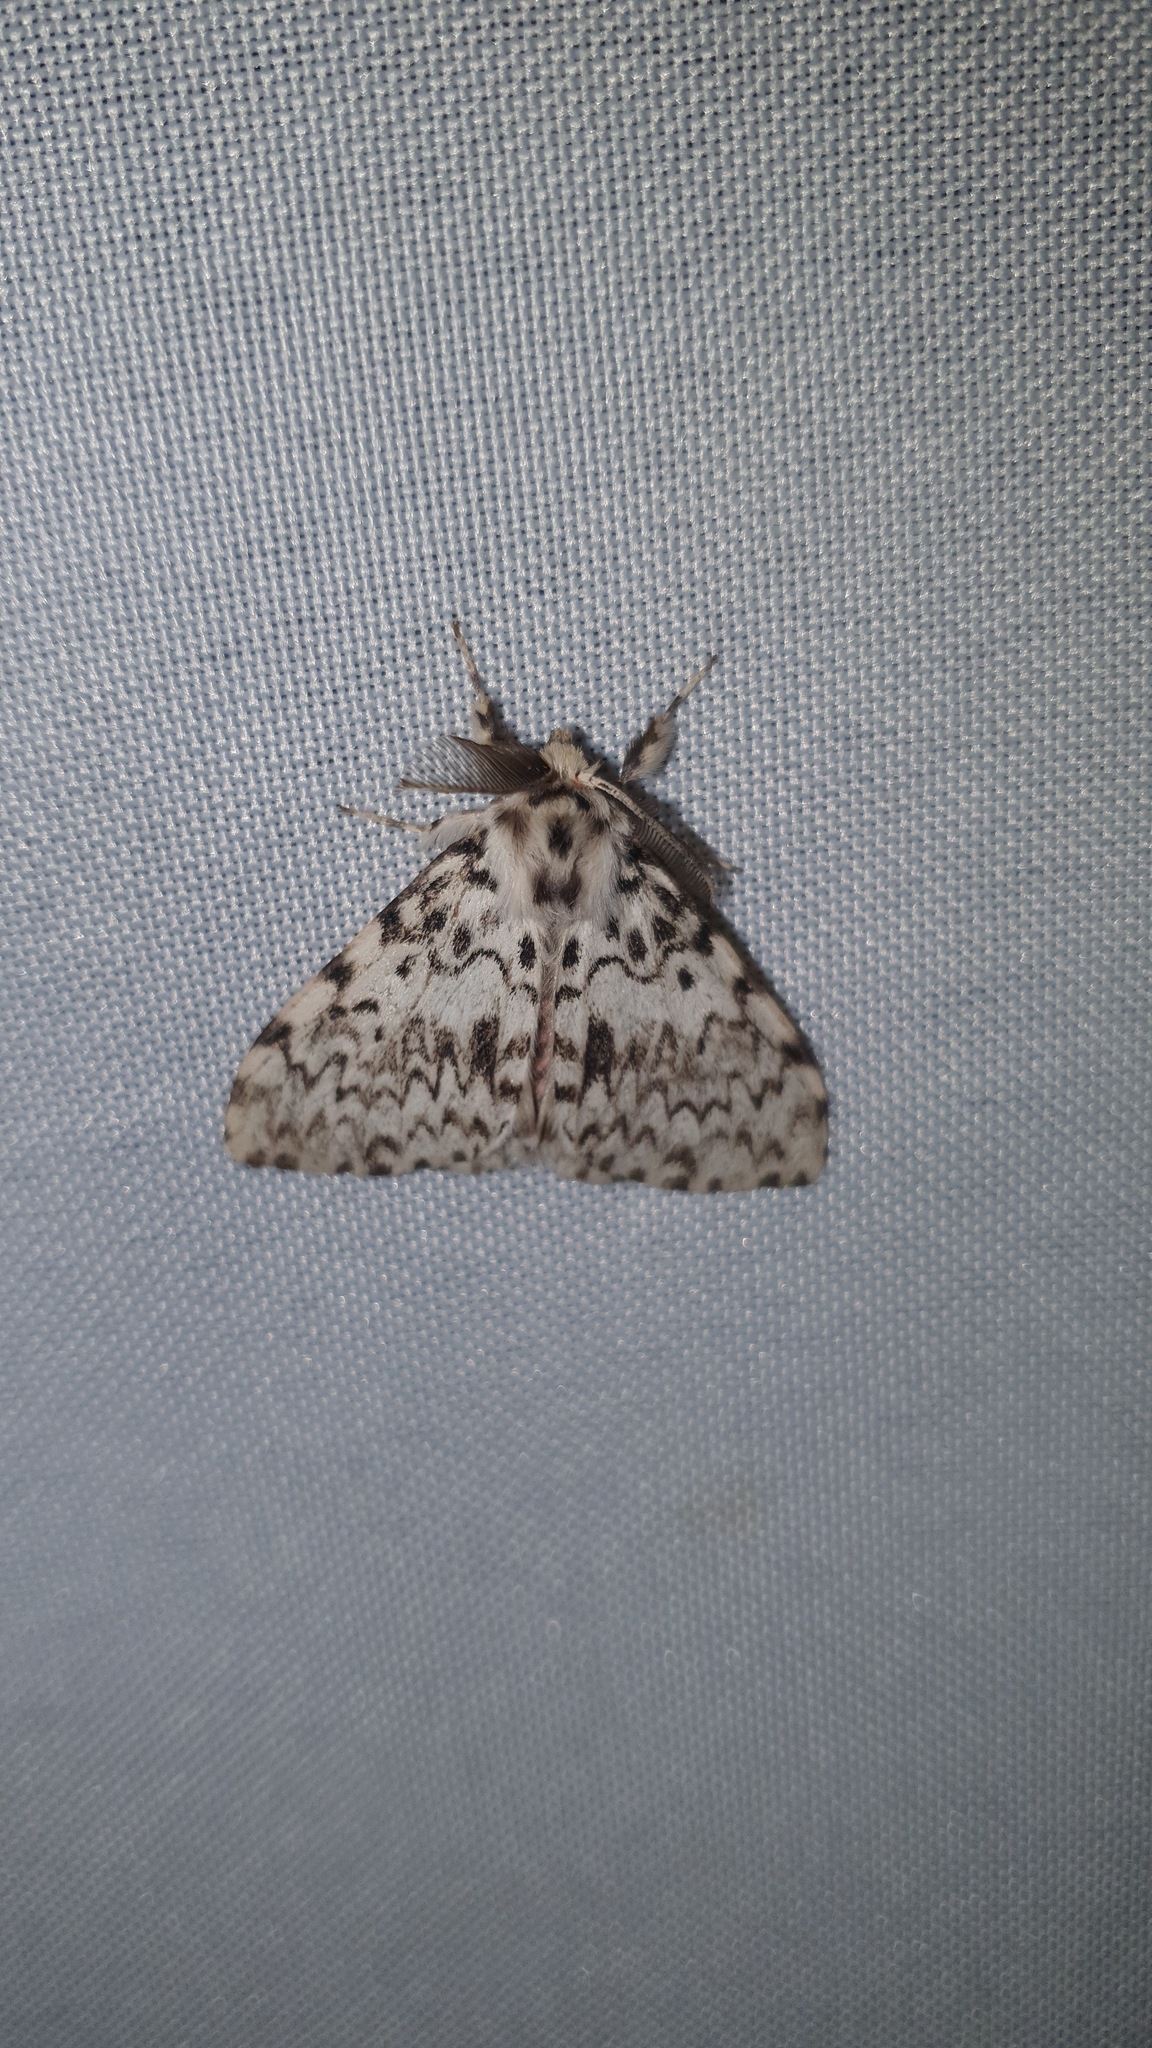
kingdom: Animalia
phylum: Arthropoda
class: Insecta
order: Lepidoptera
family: Erebidae
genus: Lymantria
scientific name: Lymantria monacha
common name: Black arches
